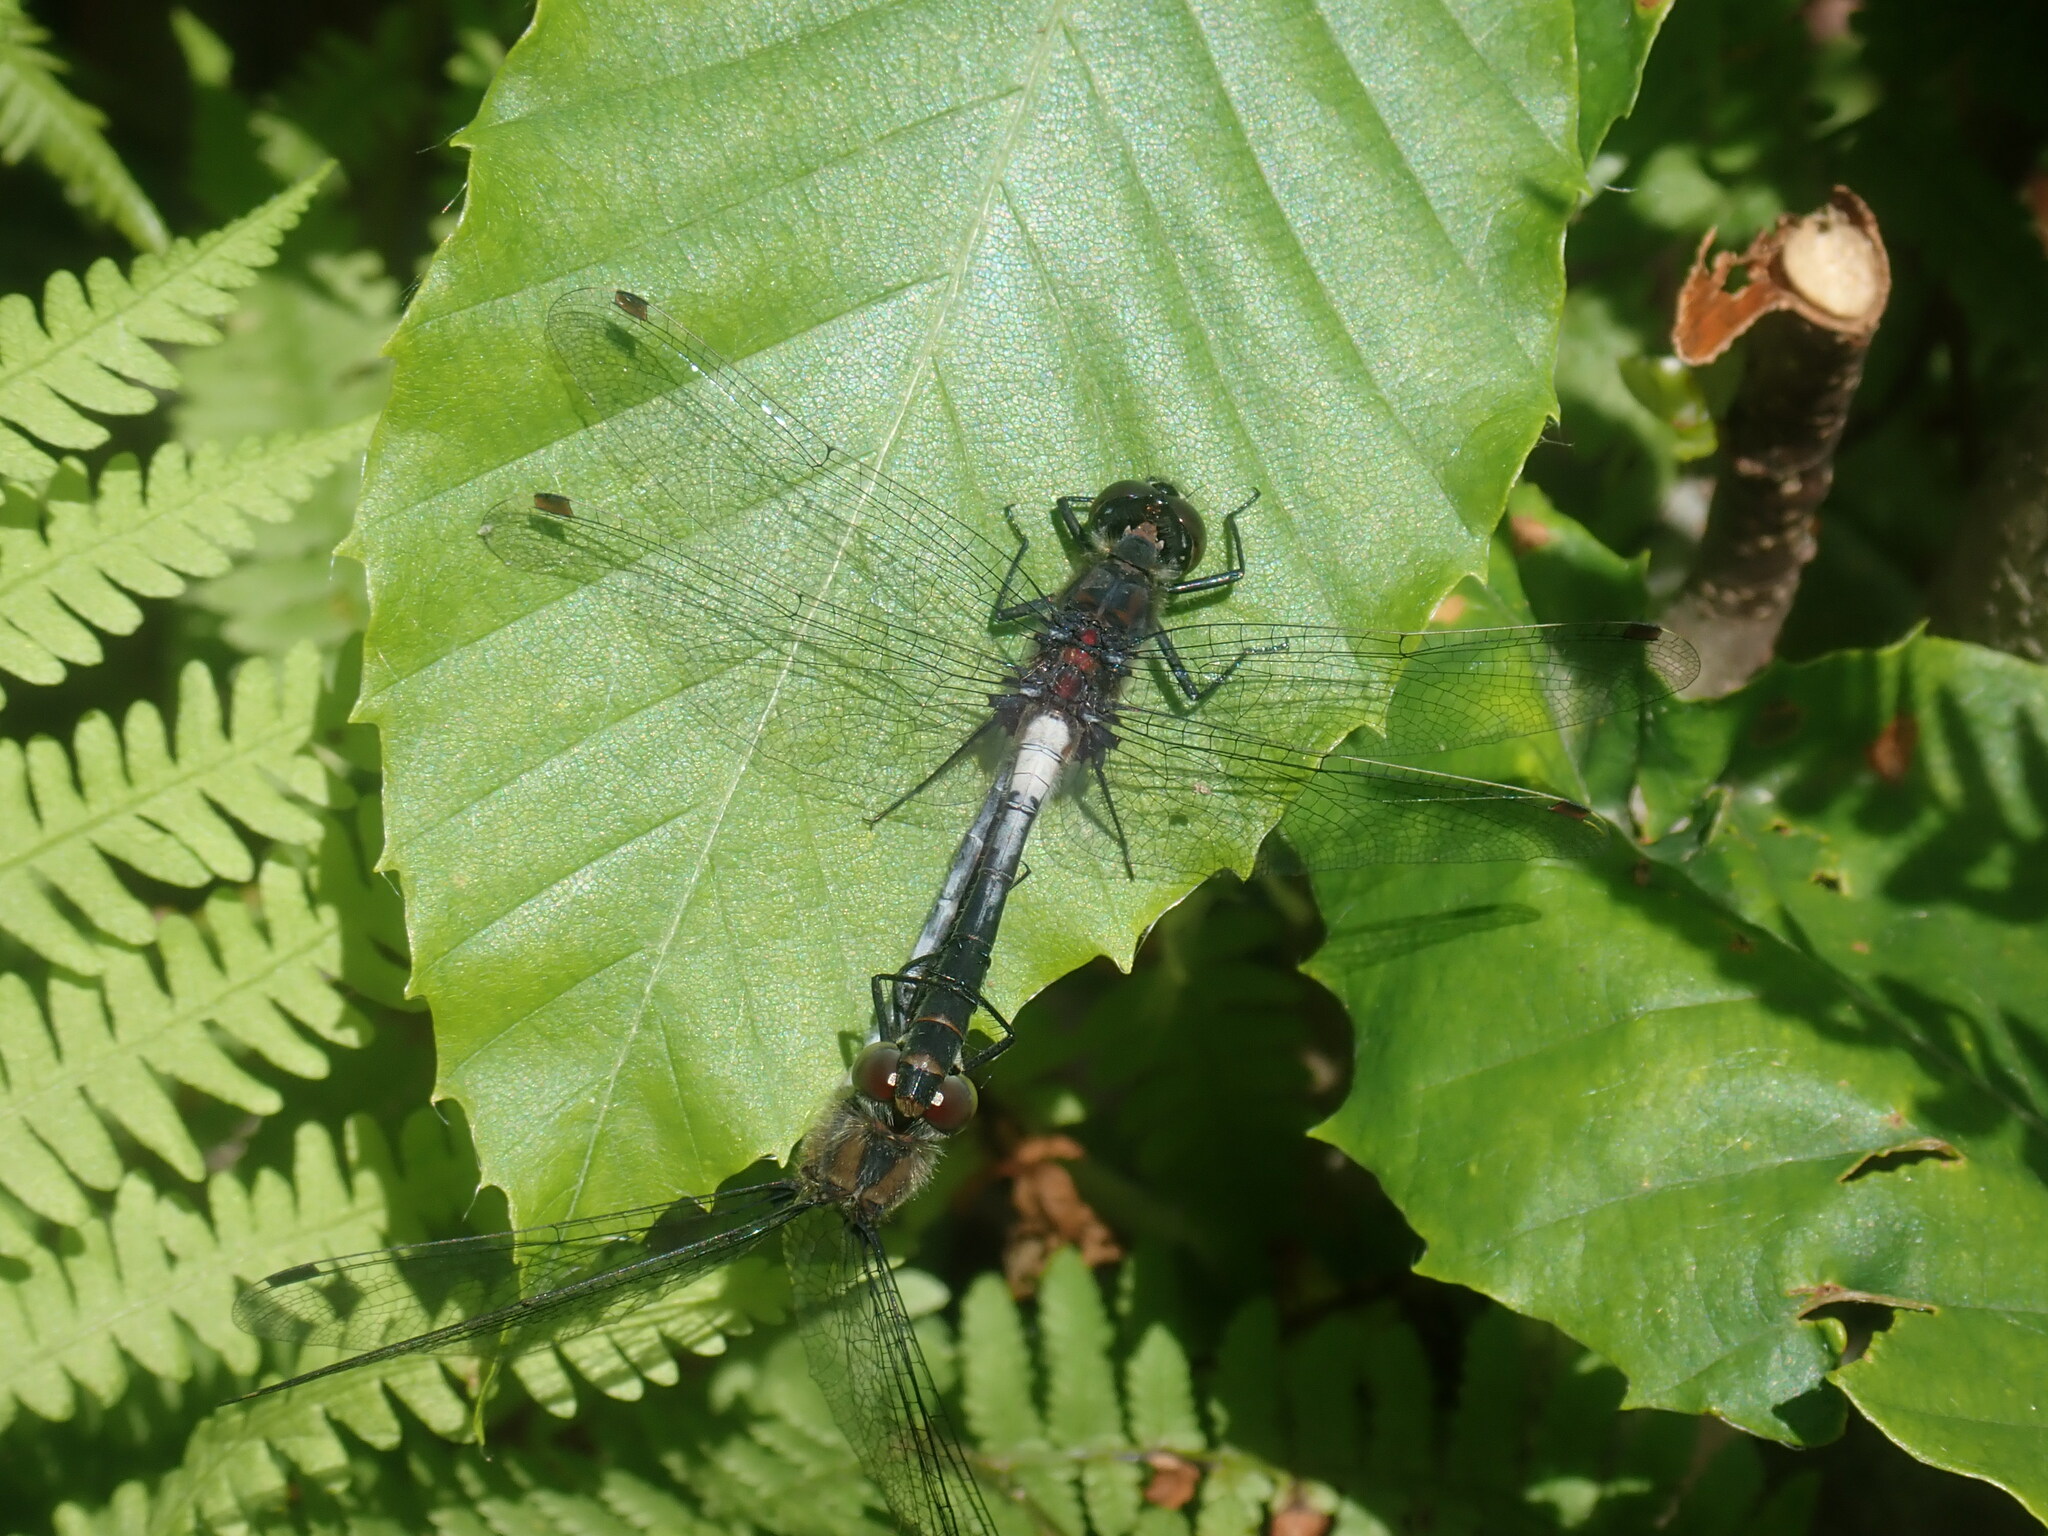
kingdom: Animalia
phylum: Arthropoda
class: Insecta
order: Odonata
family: Libellulidae
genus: Leucorrhinia
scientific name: Leucorrhinia proxima
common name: Belted whiteface
